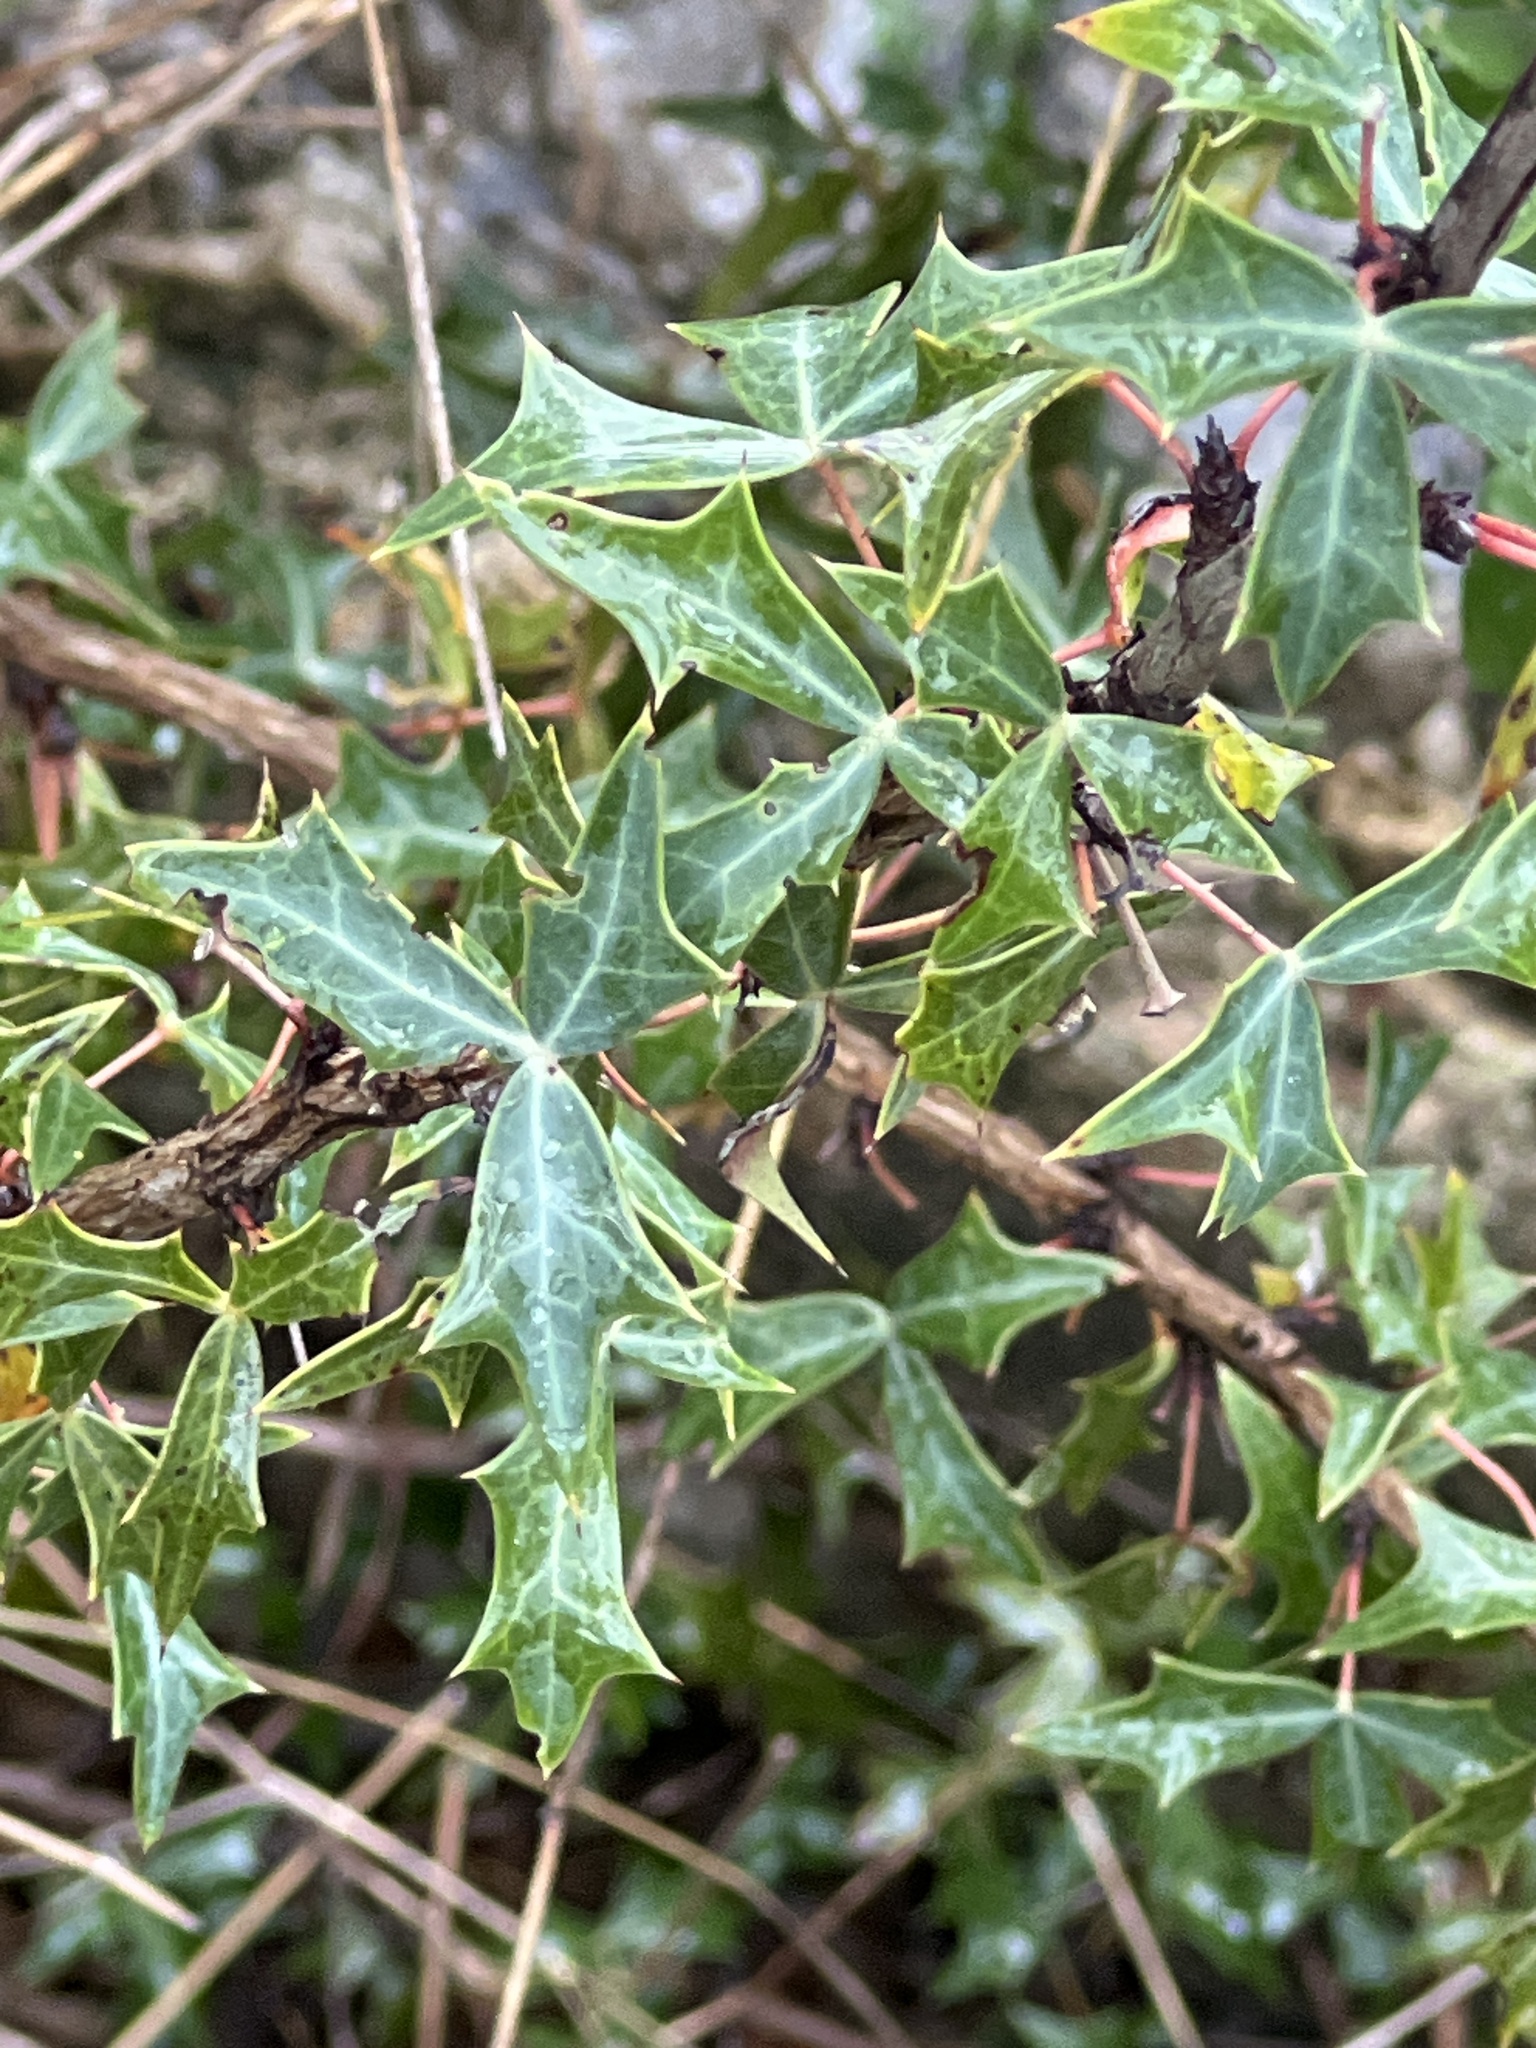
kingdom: Plantae
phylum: Tracheophyta
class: Magnoliopsida
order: Ranunculales
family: Berberidaceae
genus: Alloberberis
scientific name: Alloberberis trifoliolata
